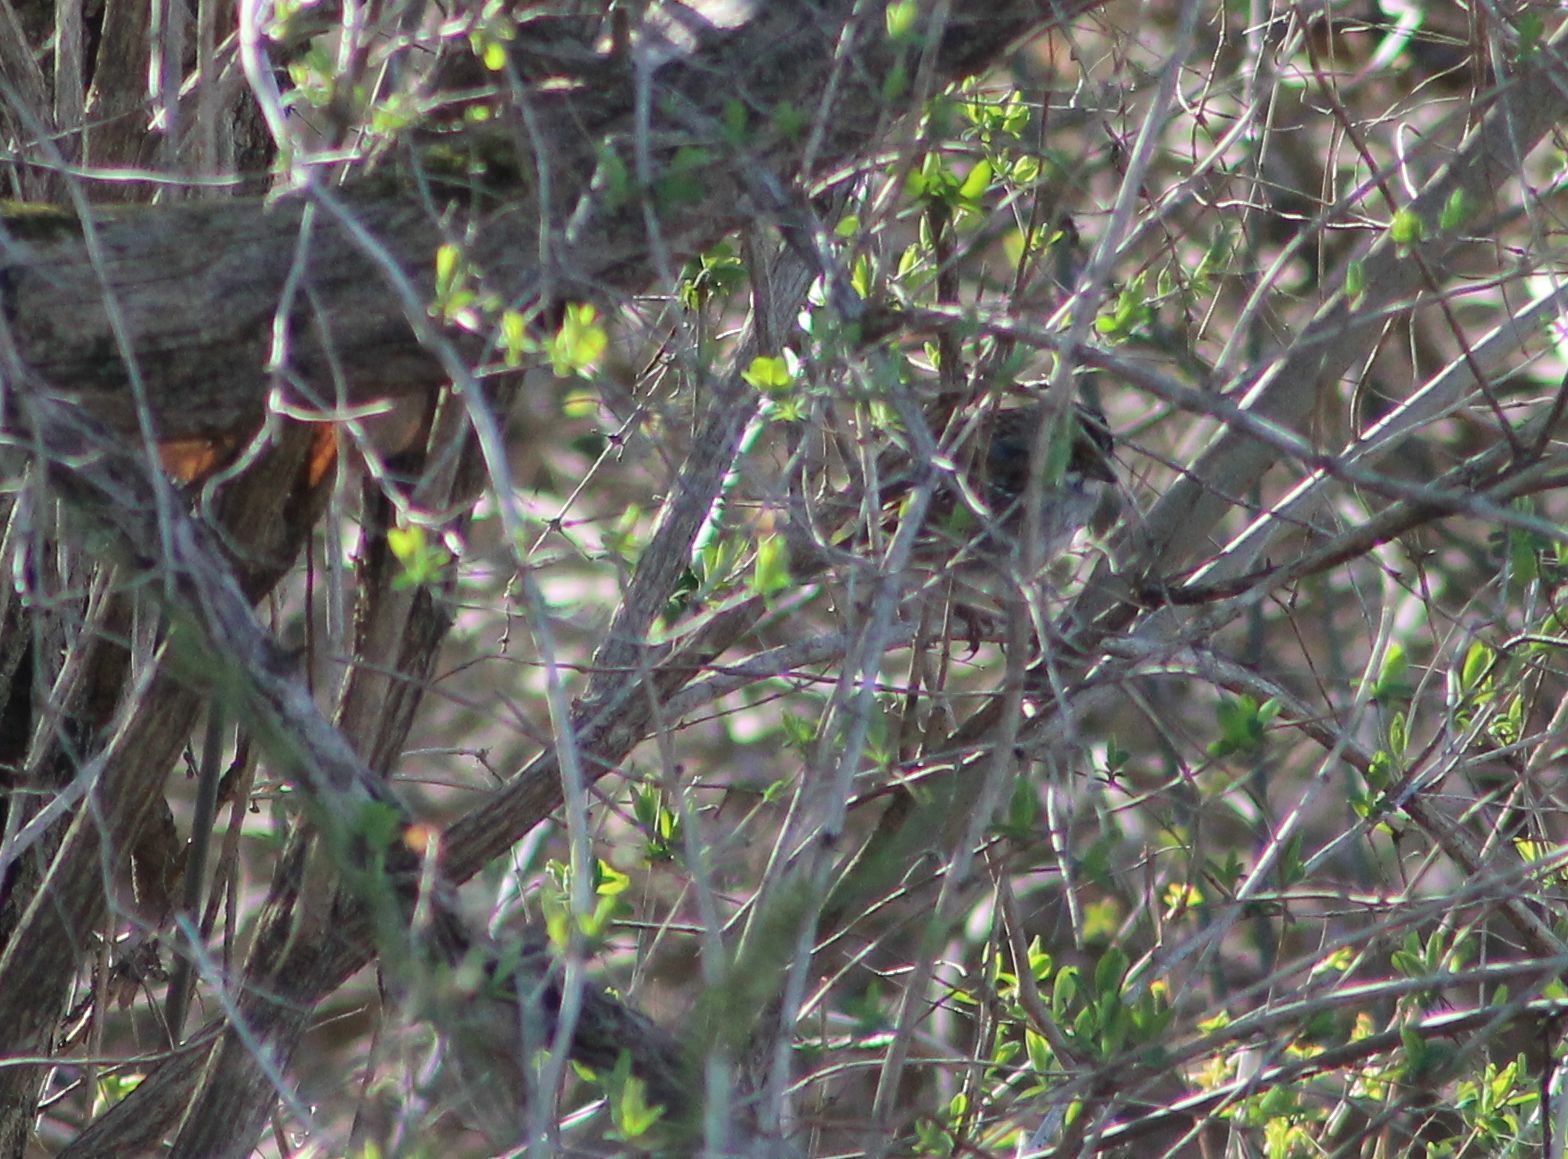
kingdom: Animalia
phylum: Chordata
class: Aves
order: Passeriformes
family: Passerellidae
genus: Zonotrichia
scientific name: Zonotrichia albicollis
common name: White-throated sparrow
